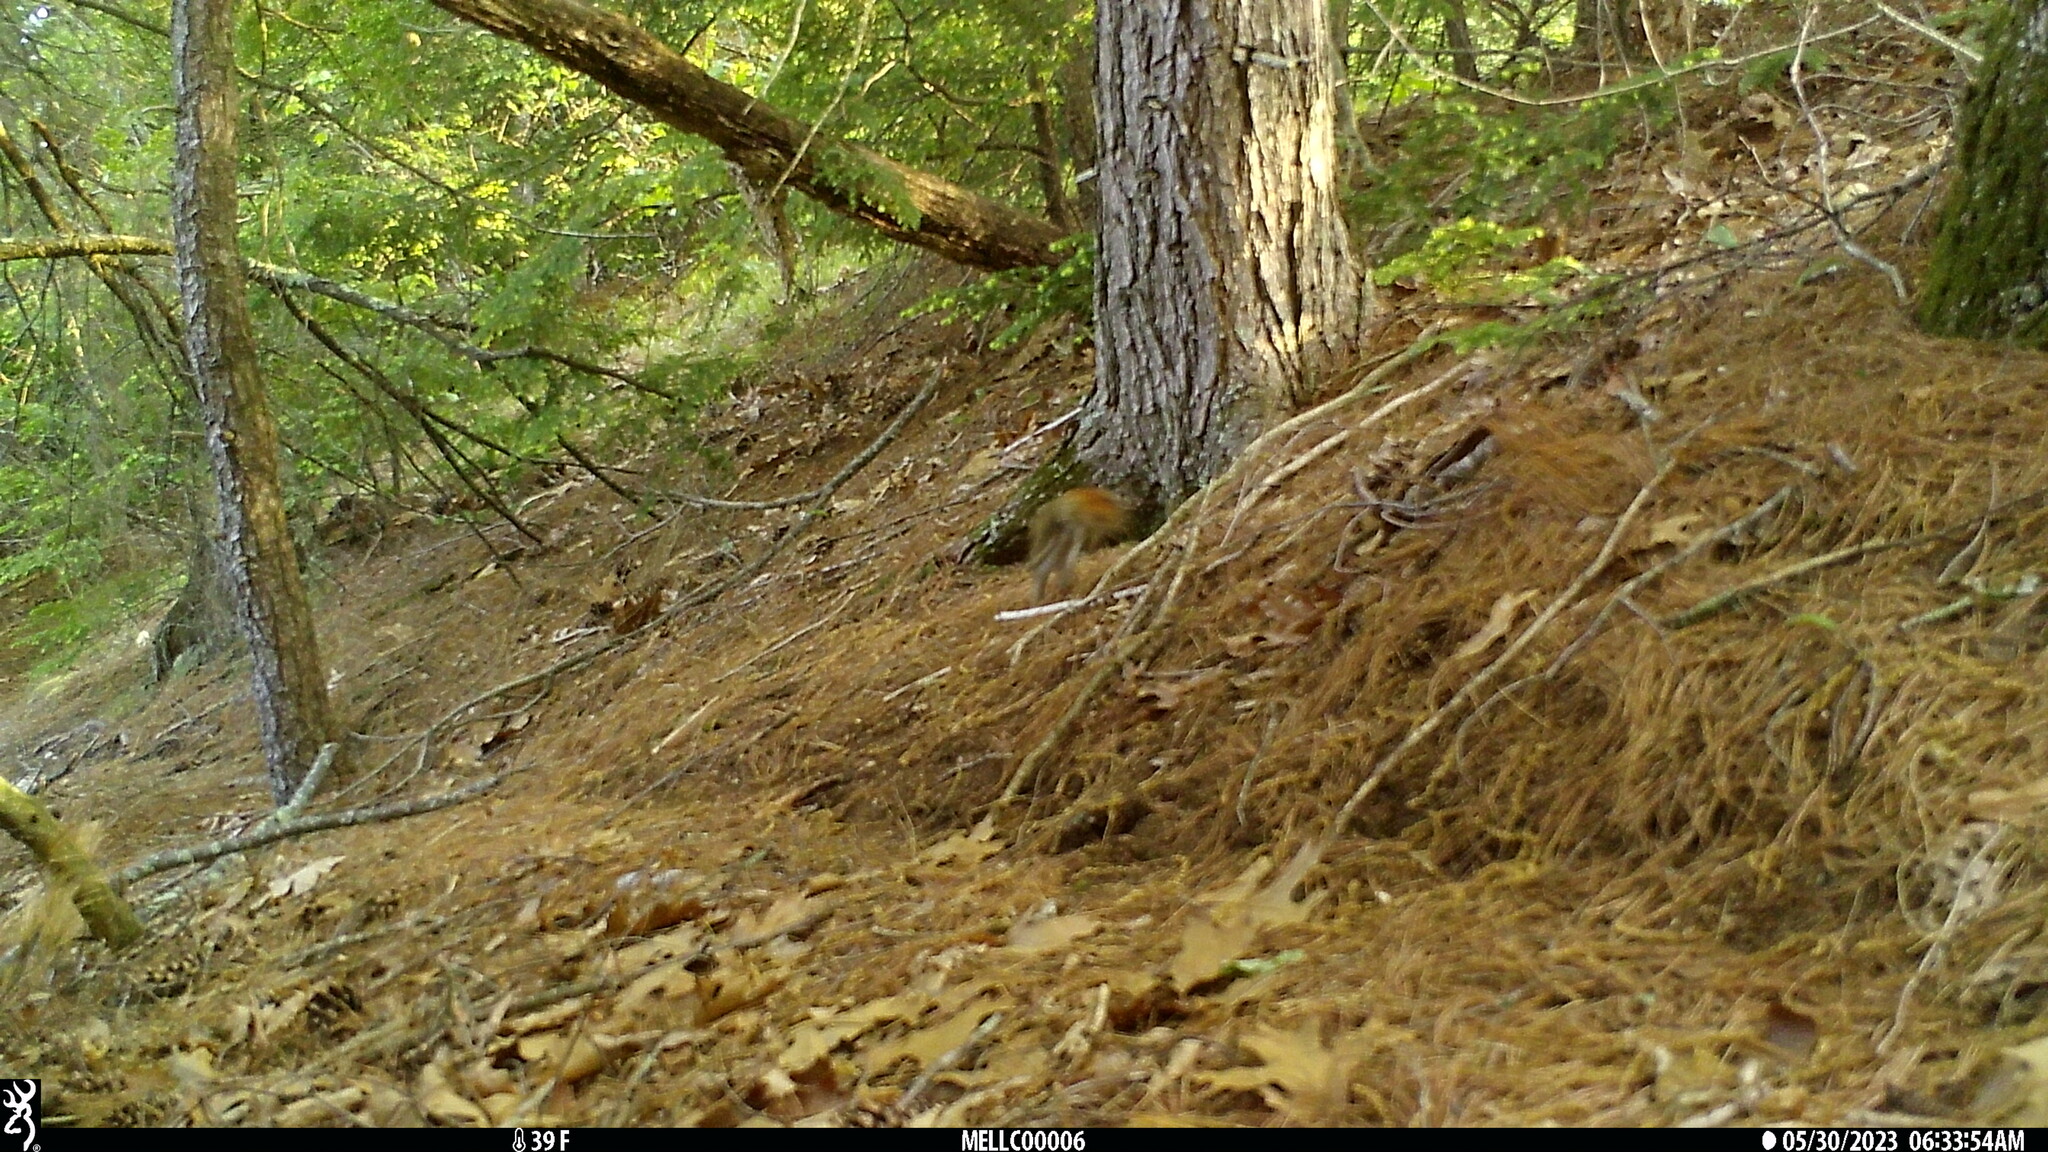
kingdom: Animalia
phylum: Chordata
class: Mammalia
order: Rodentia
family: Sciuridae
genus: Tamiasciurus
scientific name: Tamiasciurus hudsonicus
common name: Red squirrel
